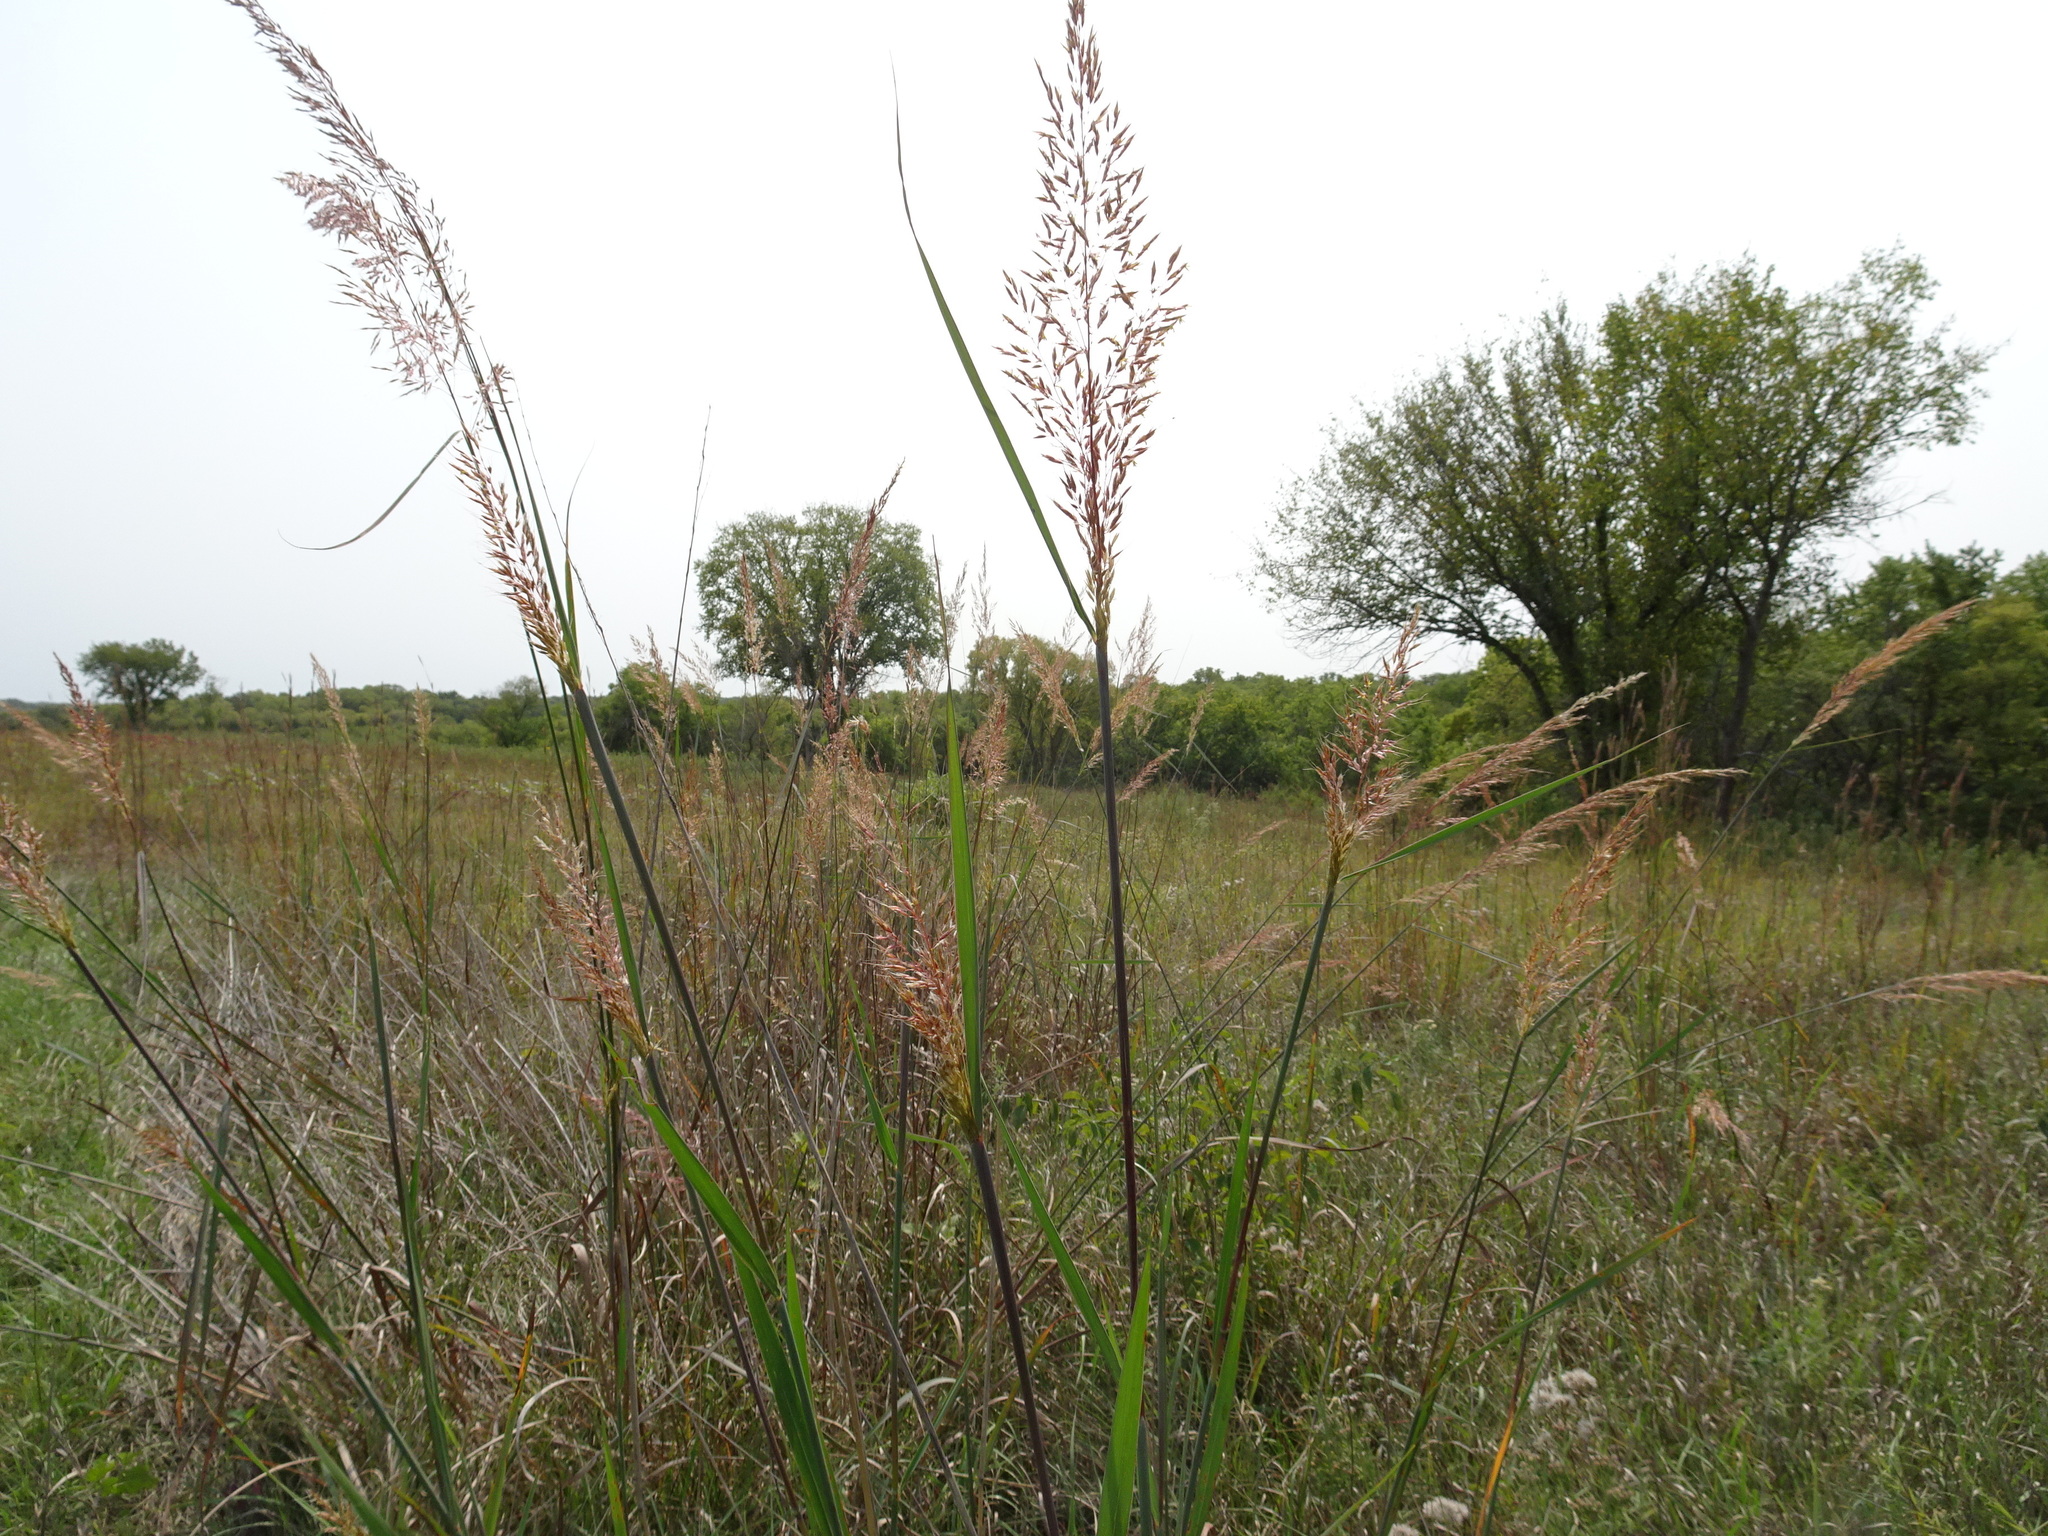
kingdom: Plantae
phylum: Tracheophyta
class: Liliopsida
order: Poales
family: Poaceae
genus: Sorghastrum
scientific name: Sorghastrum nutans
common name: Indian grass
